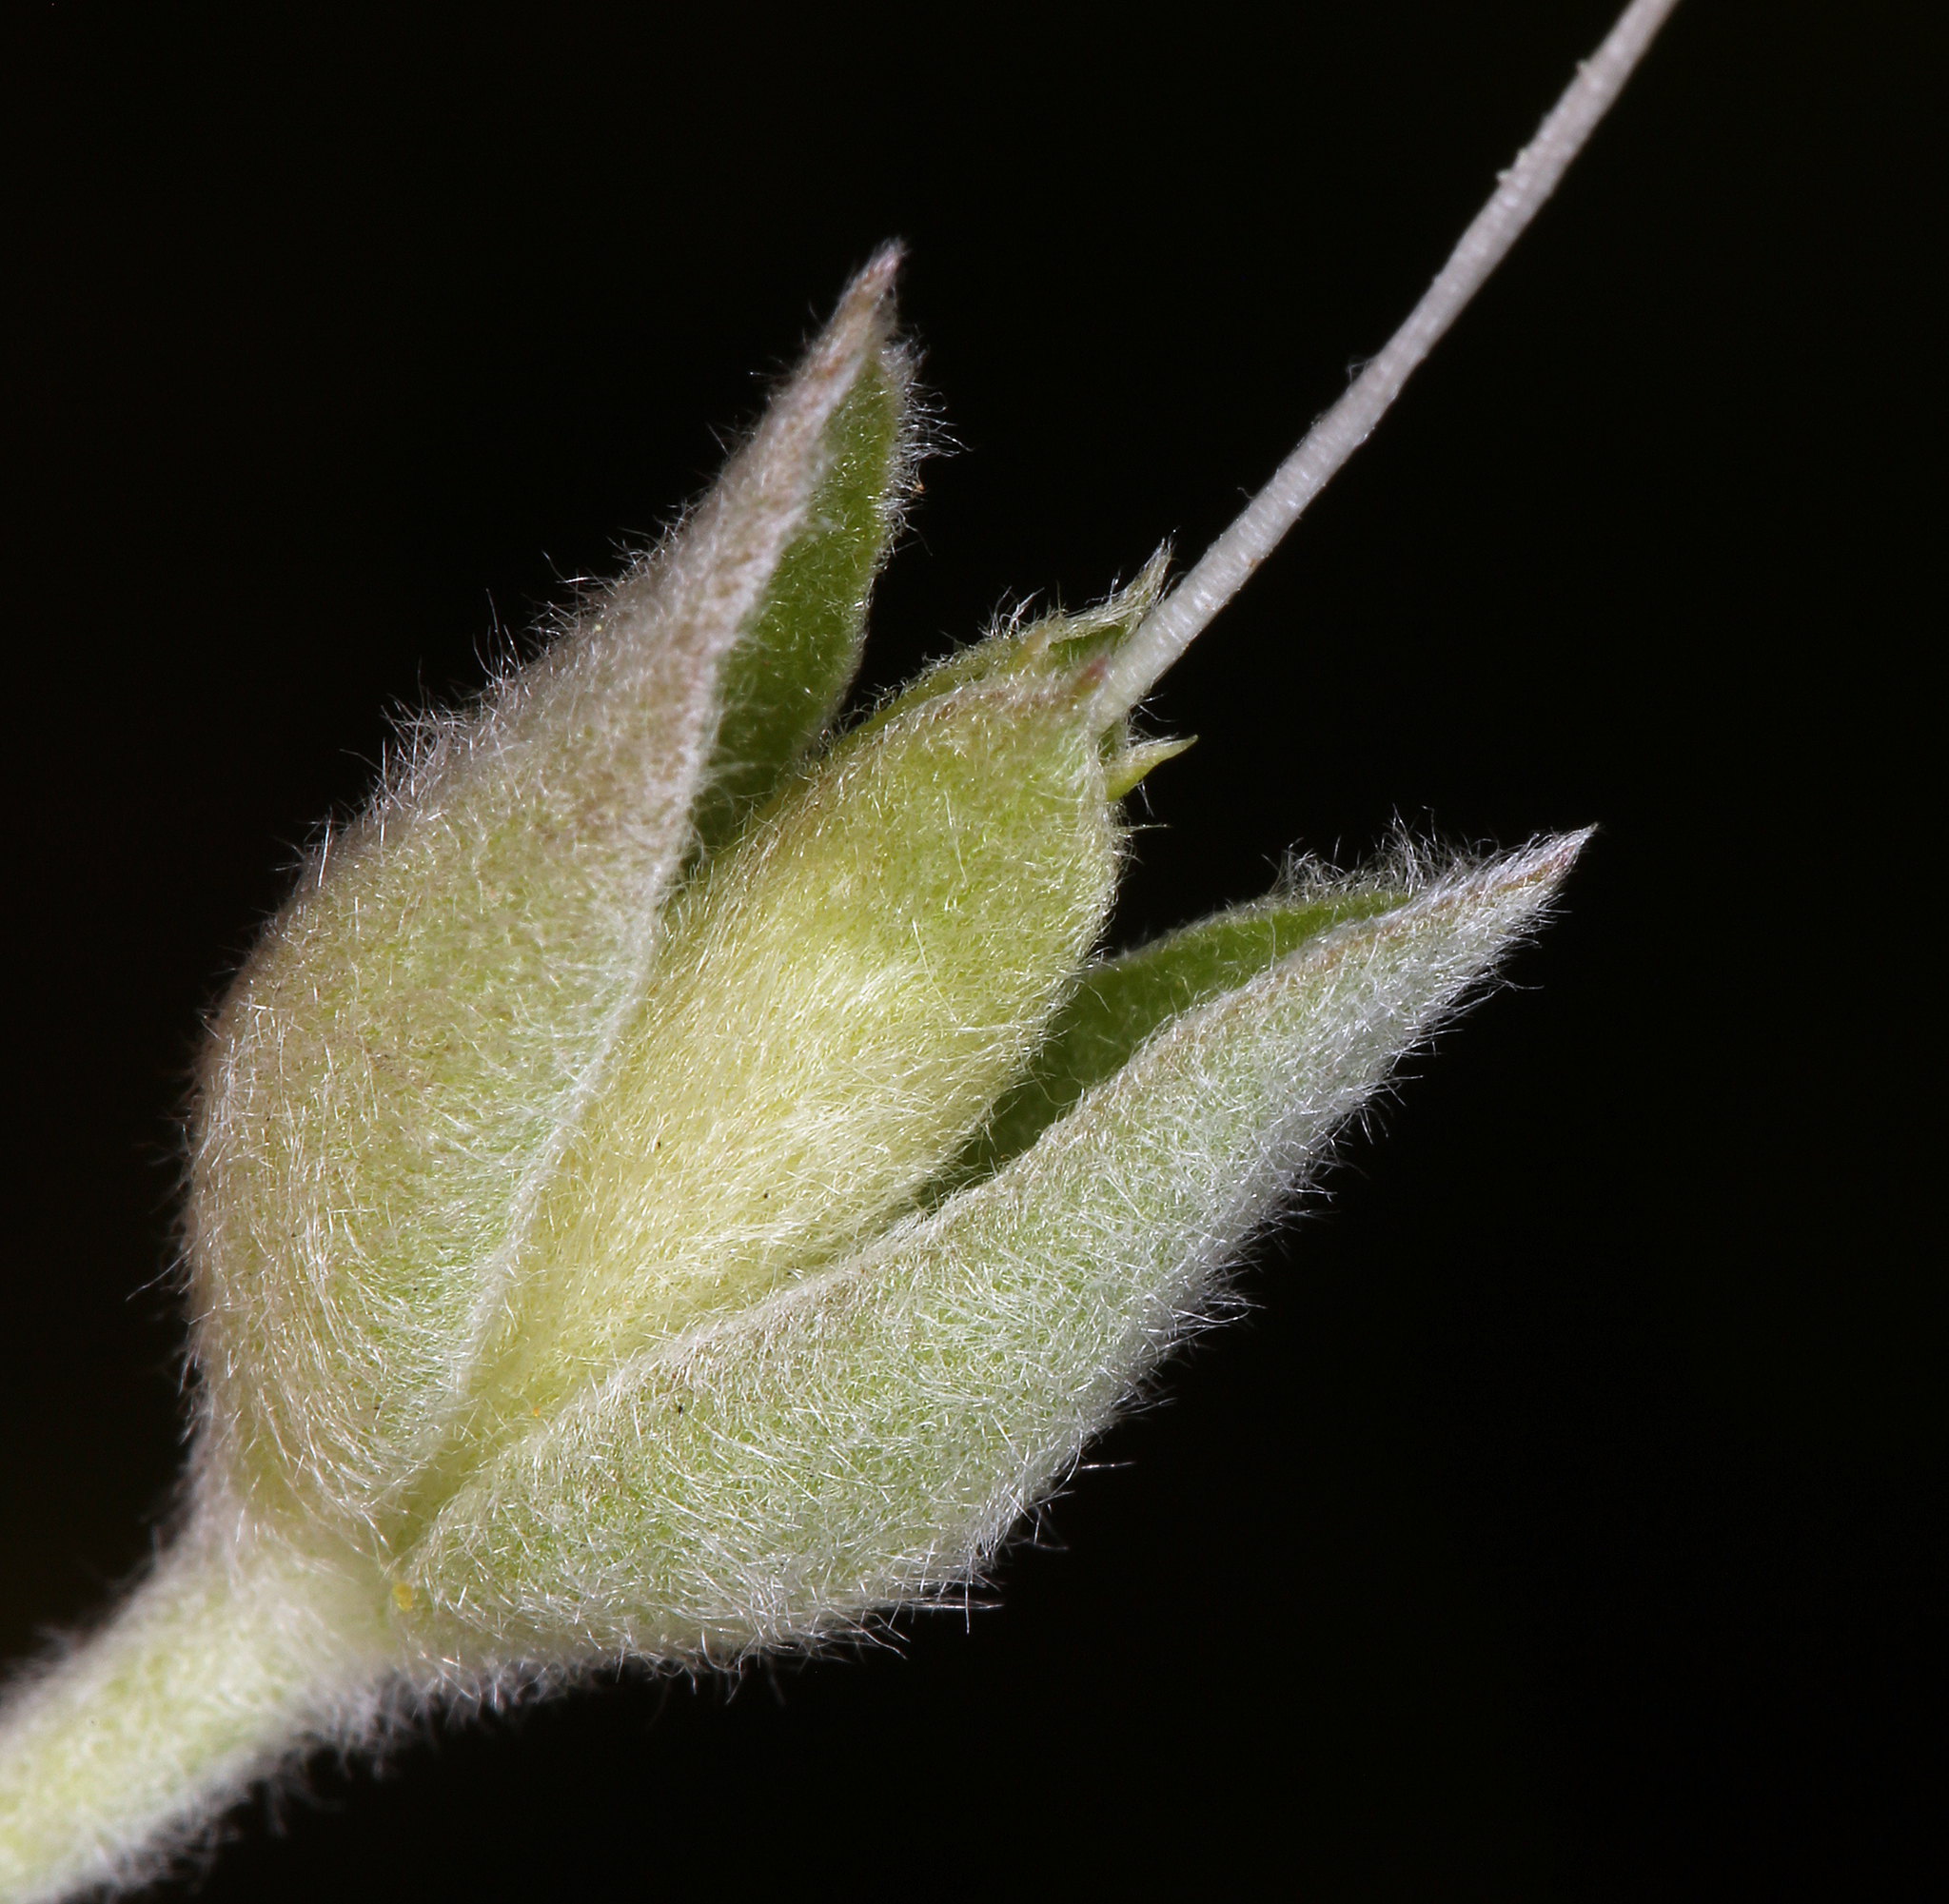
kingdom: Plantae
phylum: Tracheophyta
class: Magnoliopsida
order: Solanales
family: Convolvulaceae
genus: Calystegia
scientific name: Calystegia malacophylla
